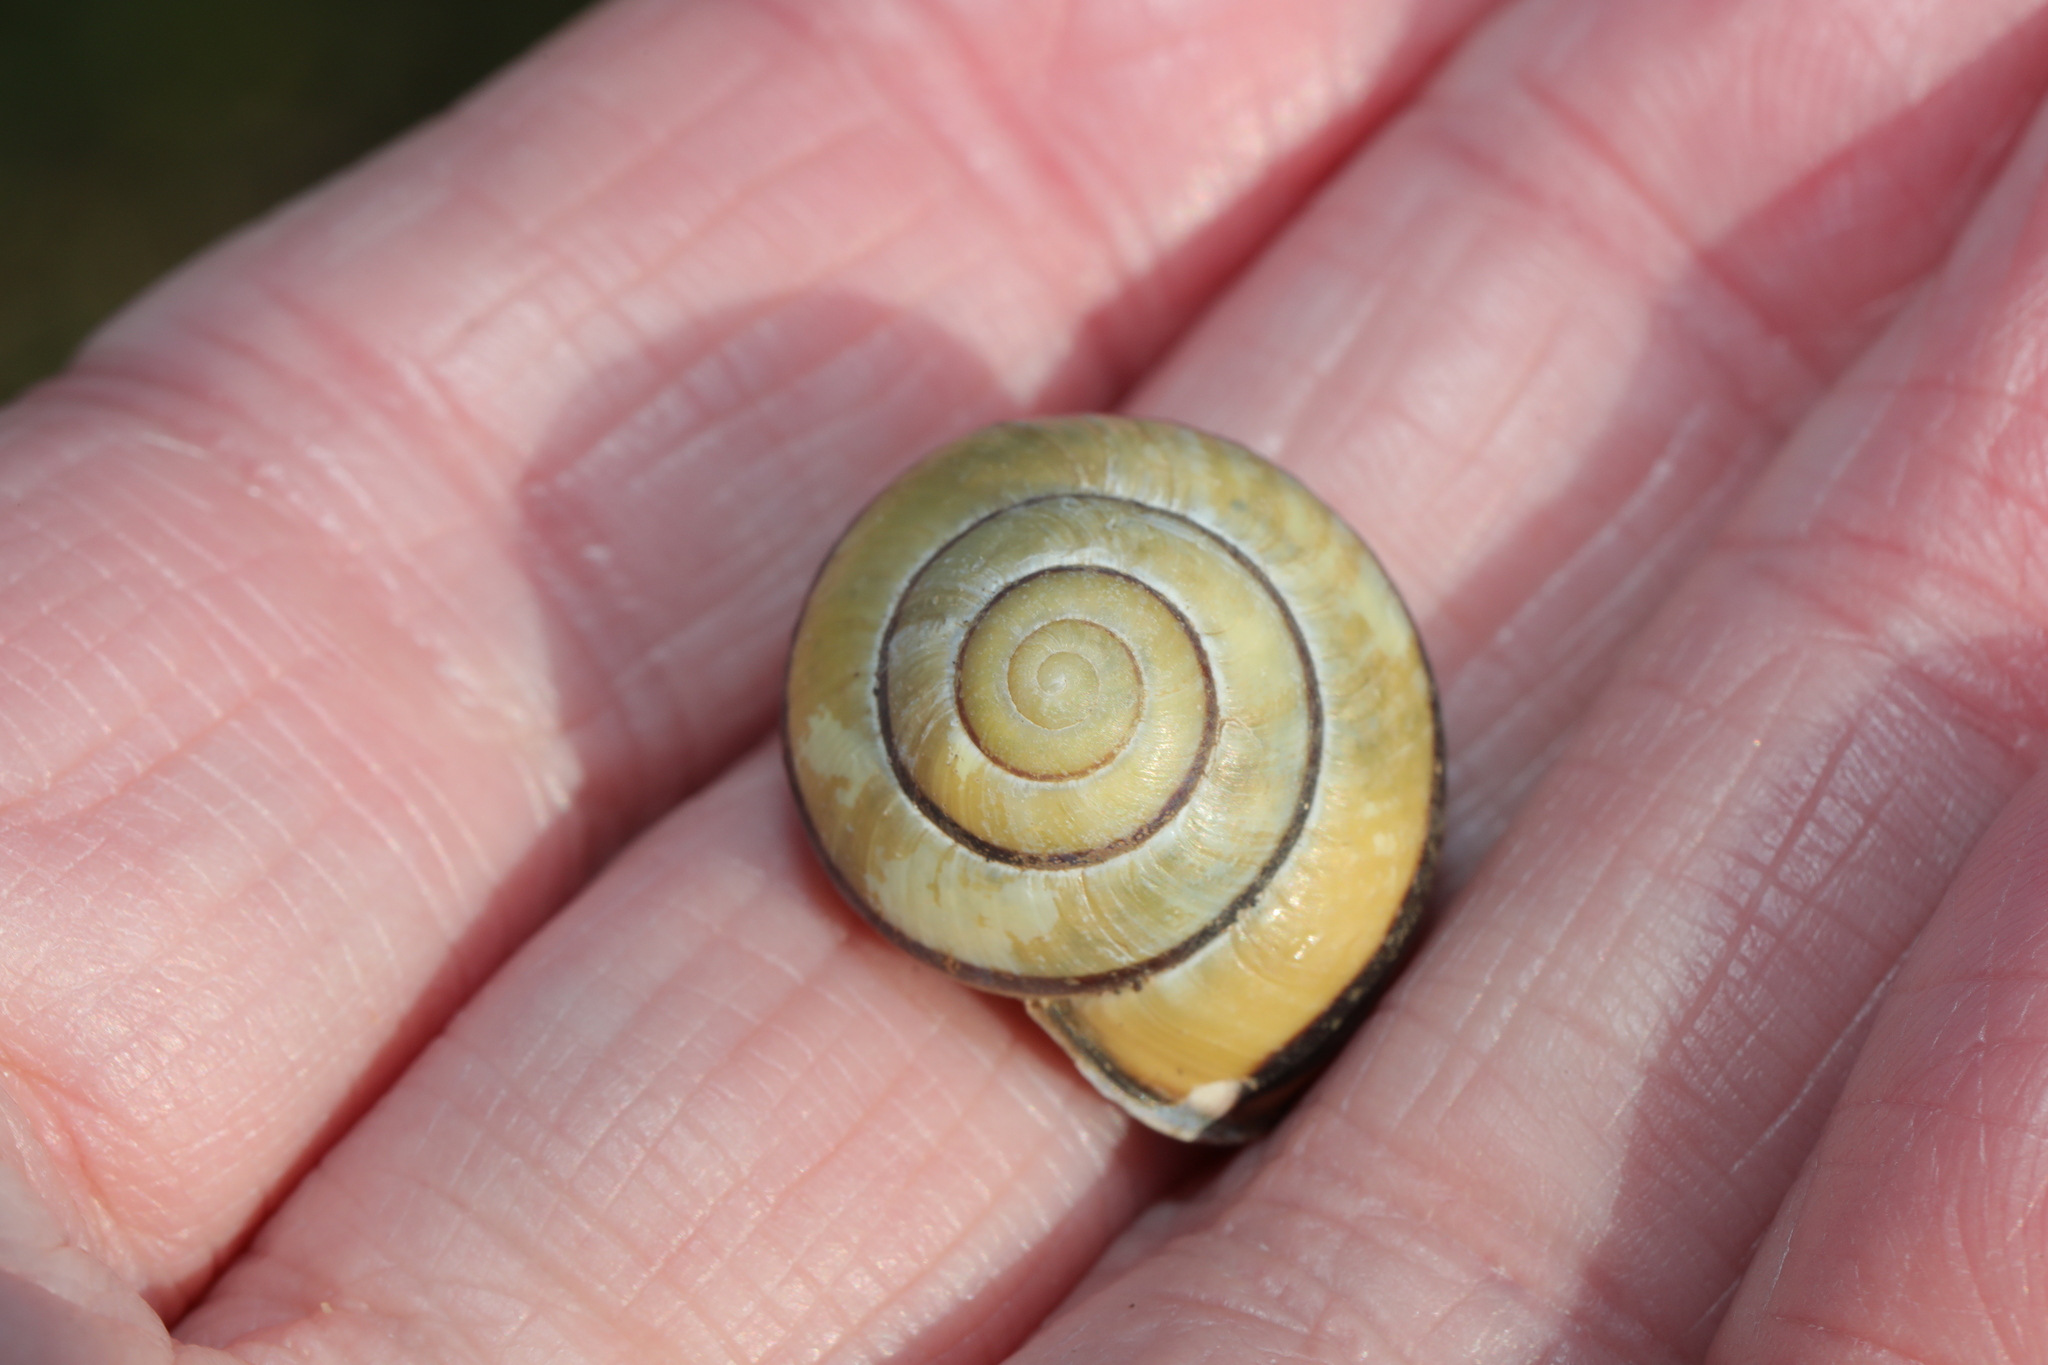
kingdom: Animalia
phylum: Mollusca
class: Gastropoda
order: Stylommatophora
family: Helicidae
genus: Cepaea
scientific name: Cepaea nemoralis
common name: Grovesnail
